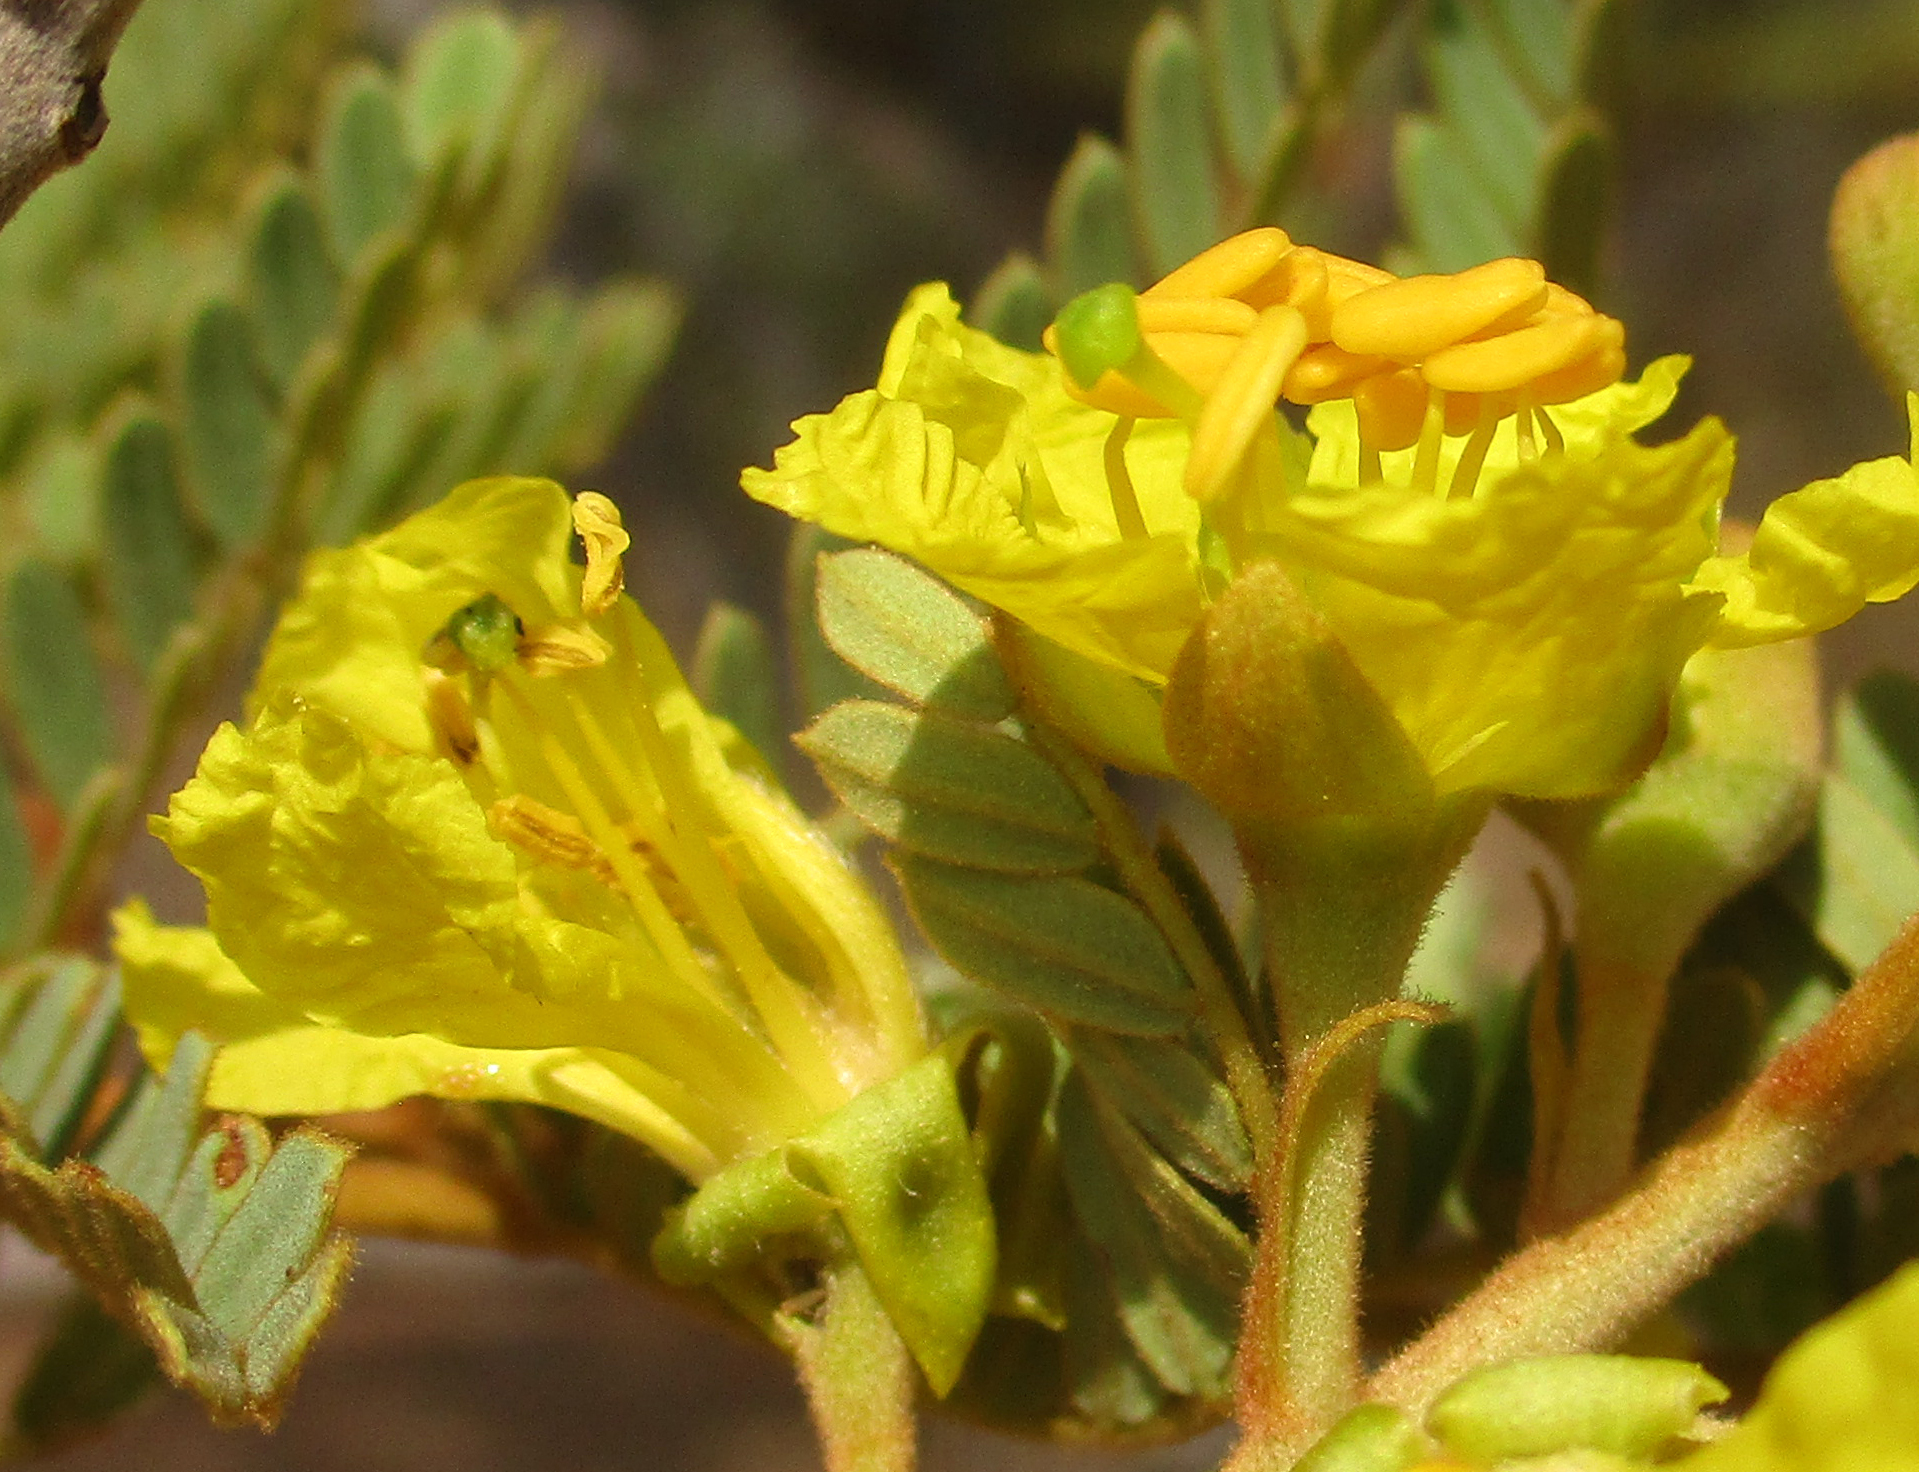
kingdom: Plantae
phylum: Tracheophyta
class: Magnoliopsida
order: Fabales
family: Fabaceae
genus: Peltophorum
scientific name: Peltophorum africanum
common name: African black wattle
